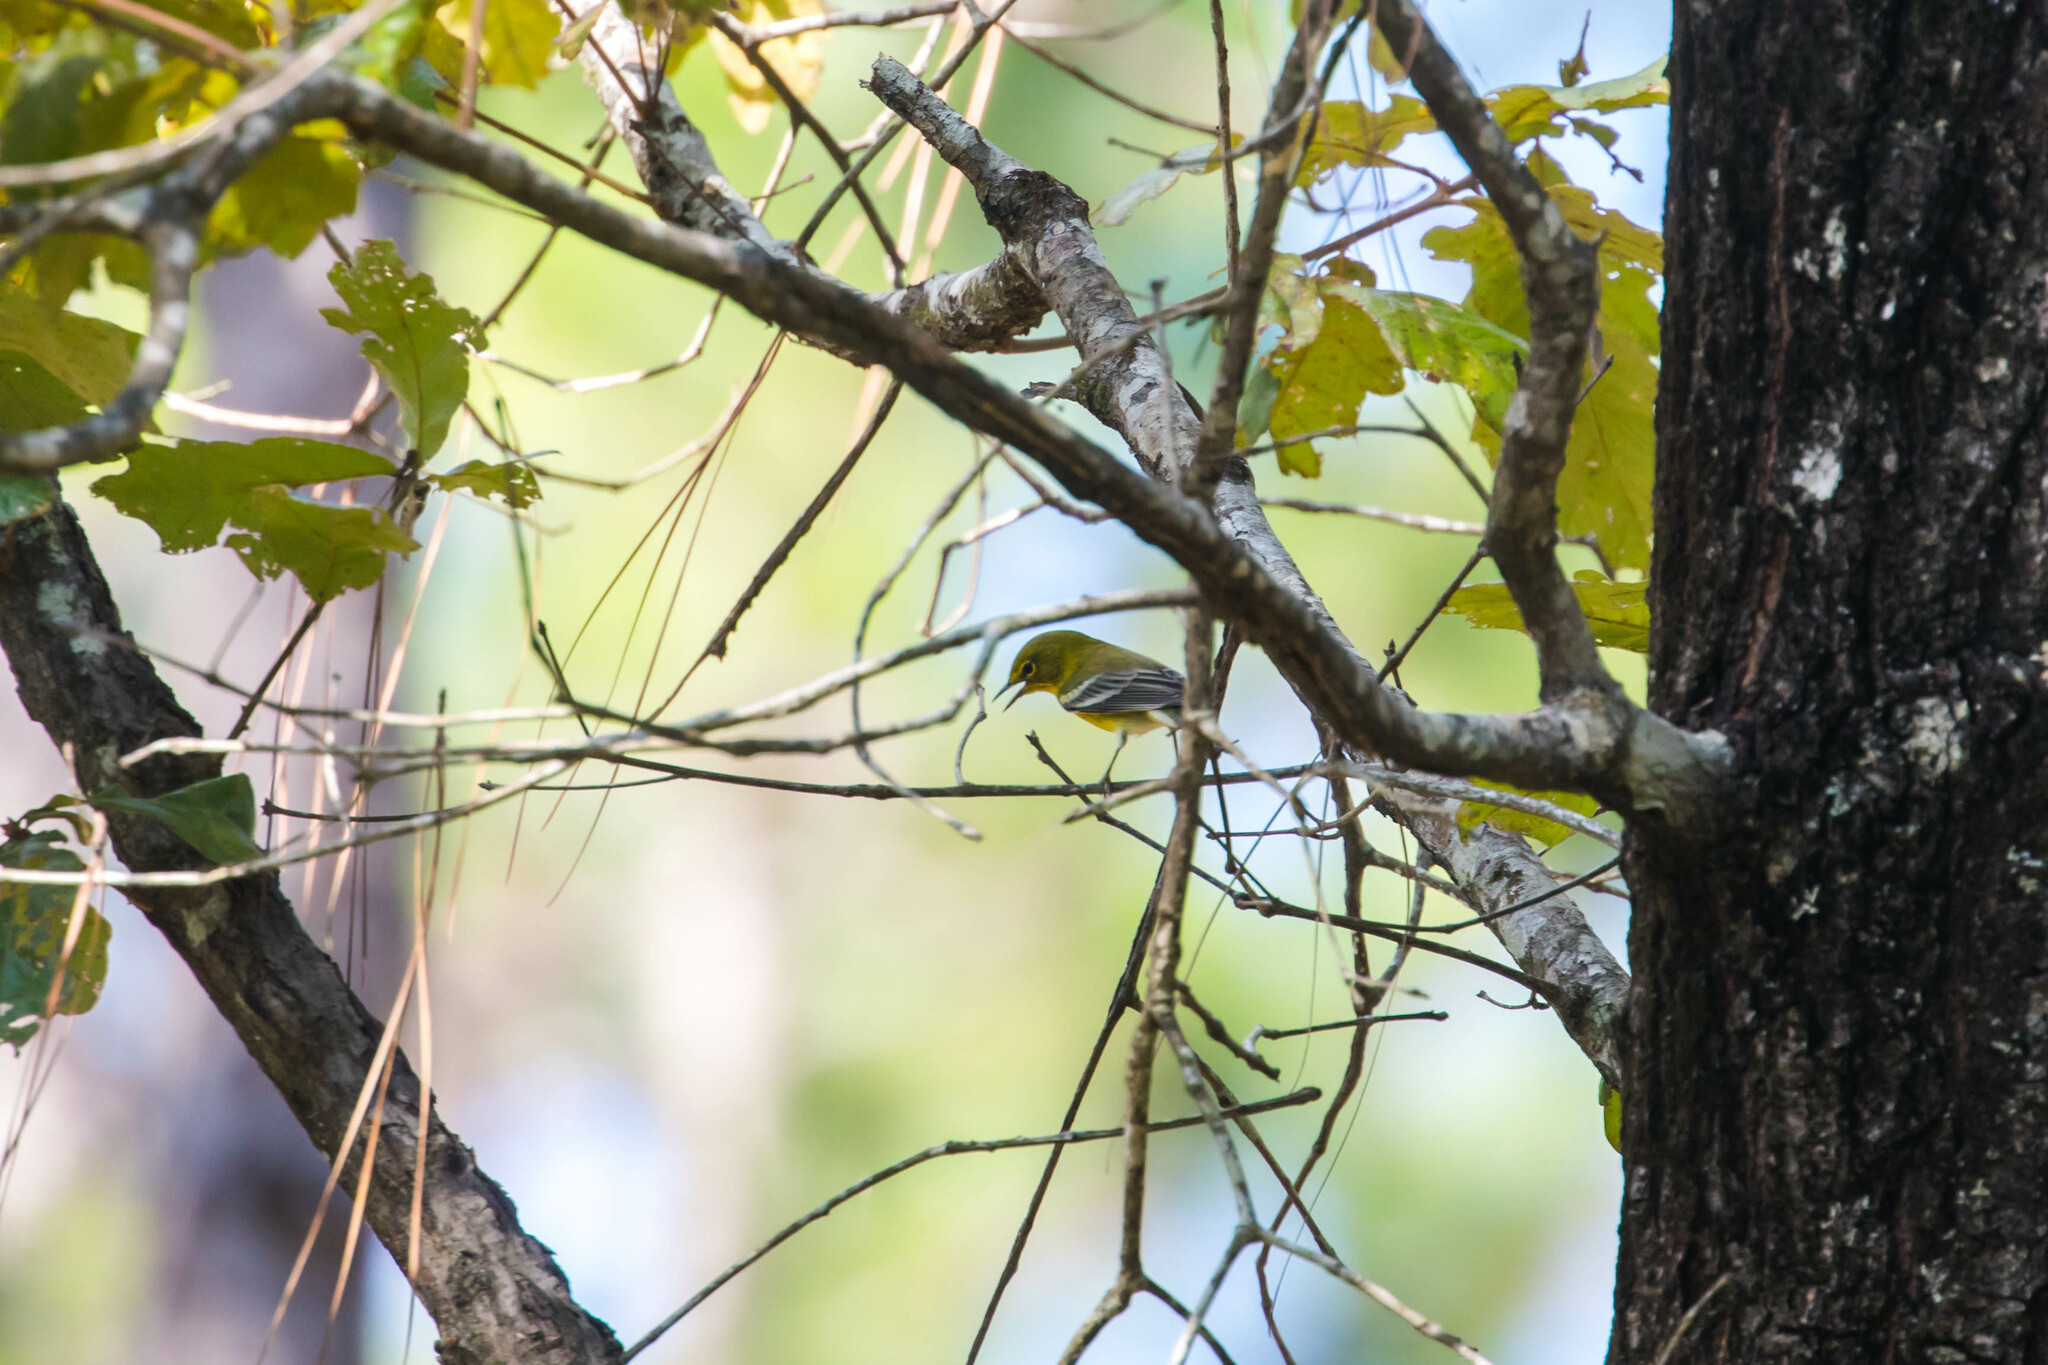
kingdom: Animalia
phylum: Chordata
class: Aves
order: Passeriformes
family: Parulidae
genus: Setophaga
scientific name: Setophaga pinus
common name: Pine warbler
